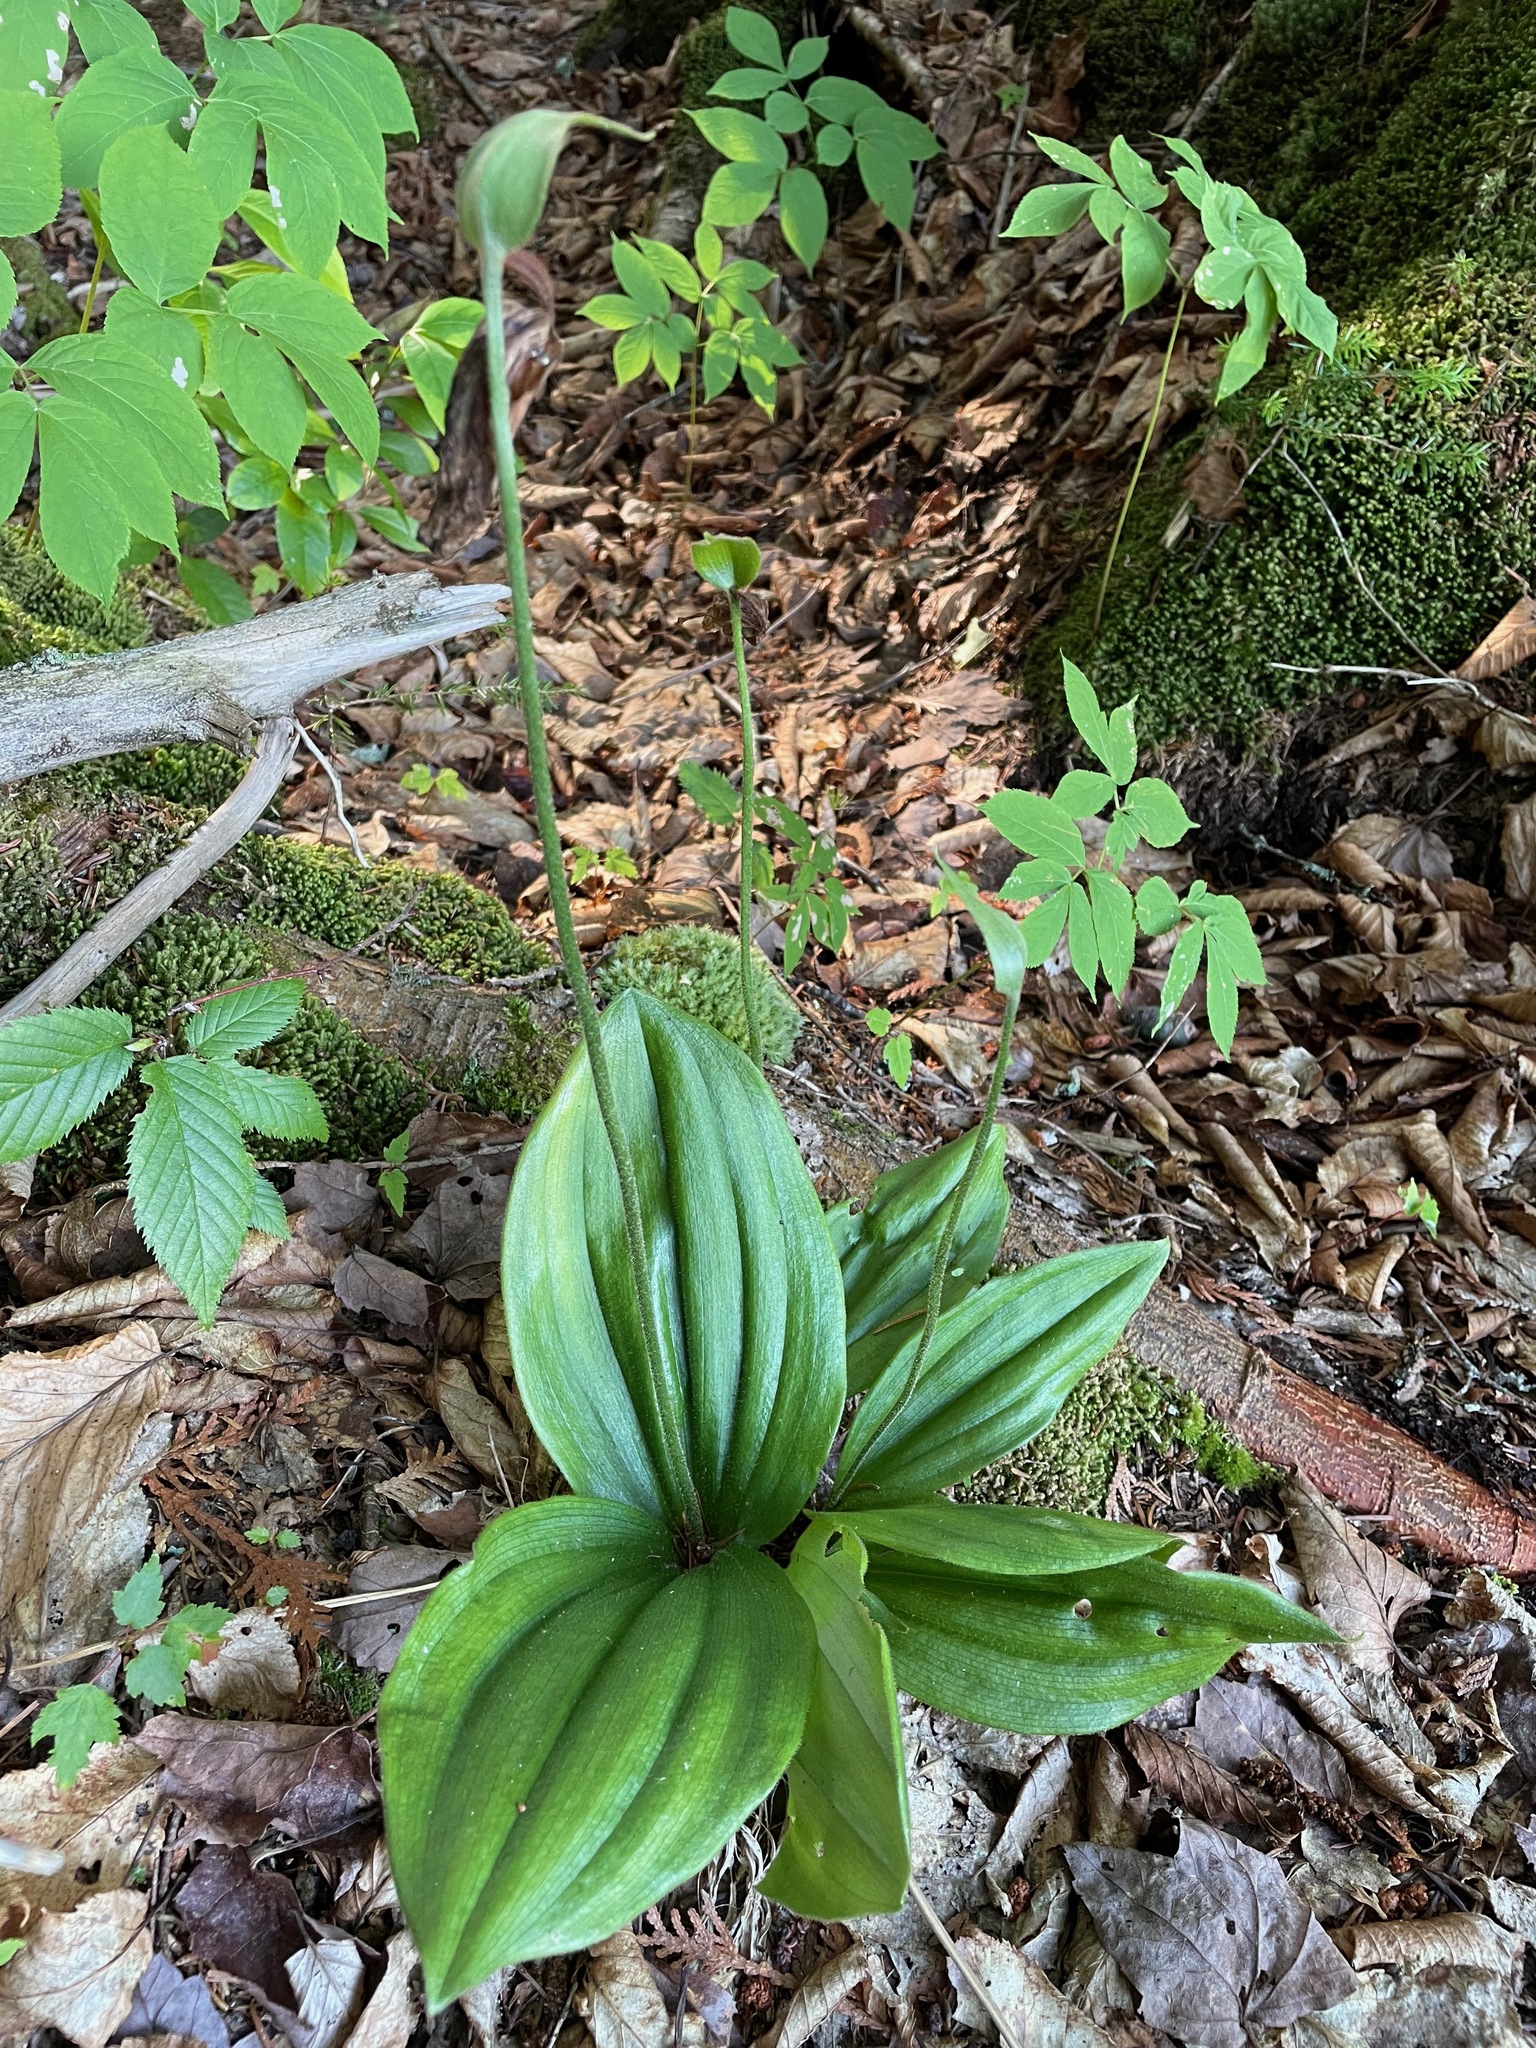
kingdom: Plantae
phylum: Tracheophyta
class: Liliopsida
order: Asparagales
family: Orchidaceae
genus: Cypripedium
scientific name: Cypripedium acaule
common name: Pink lady's-slipper
